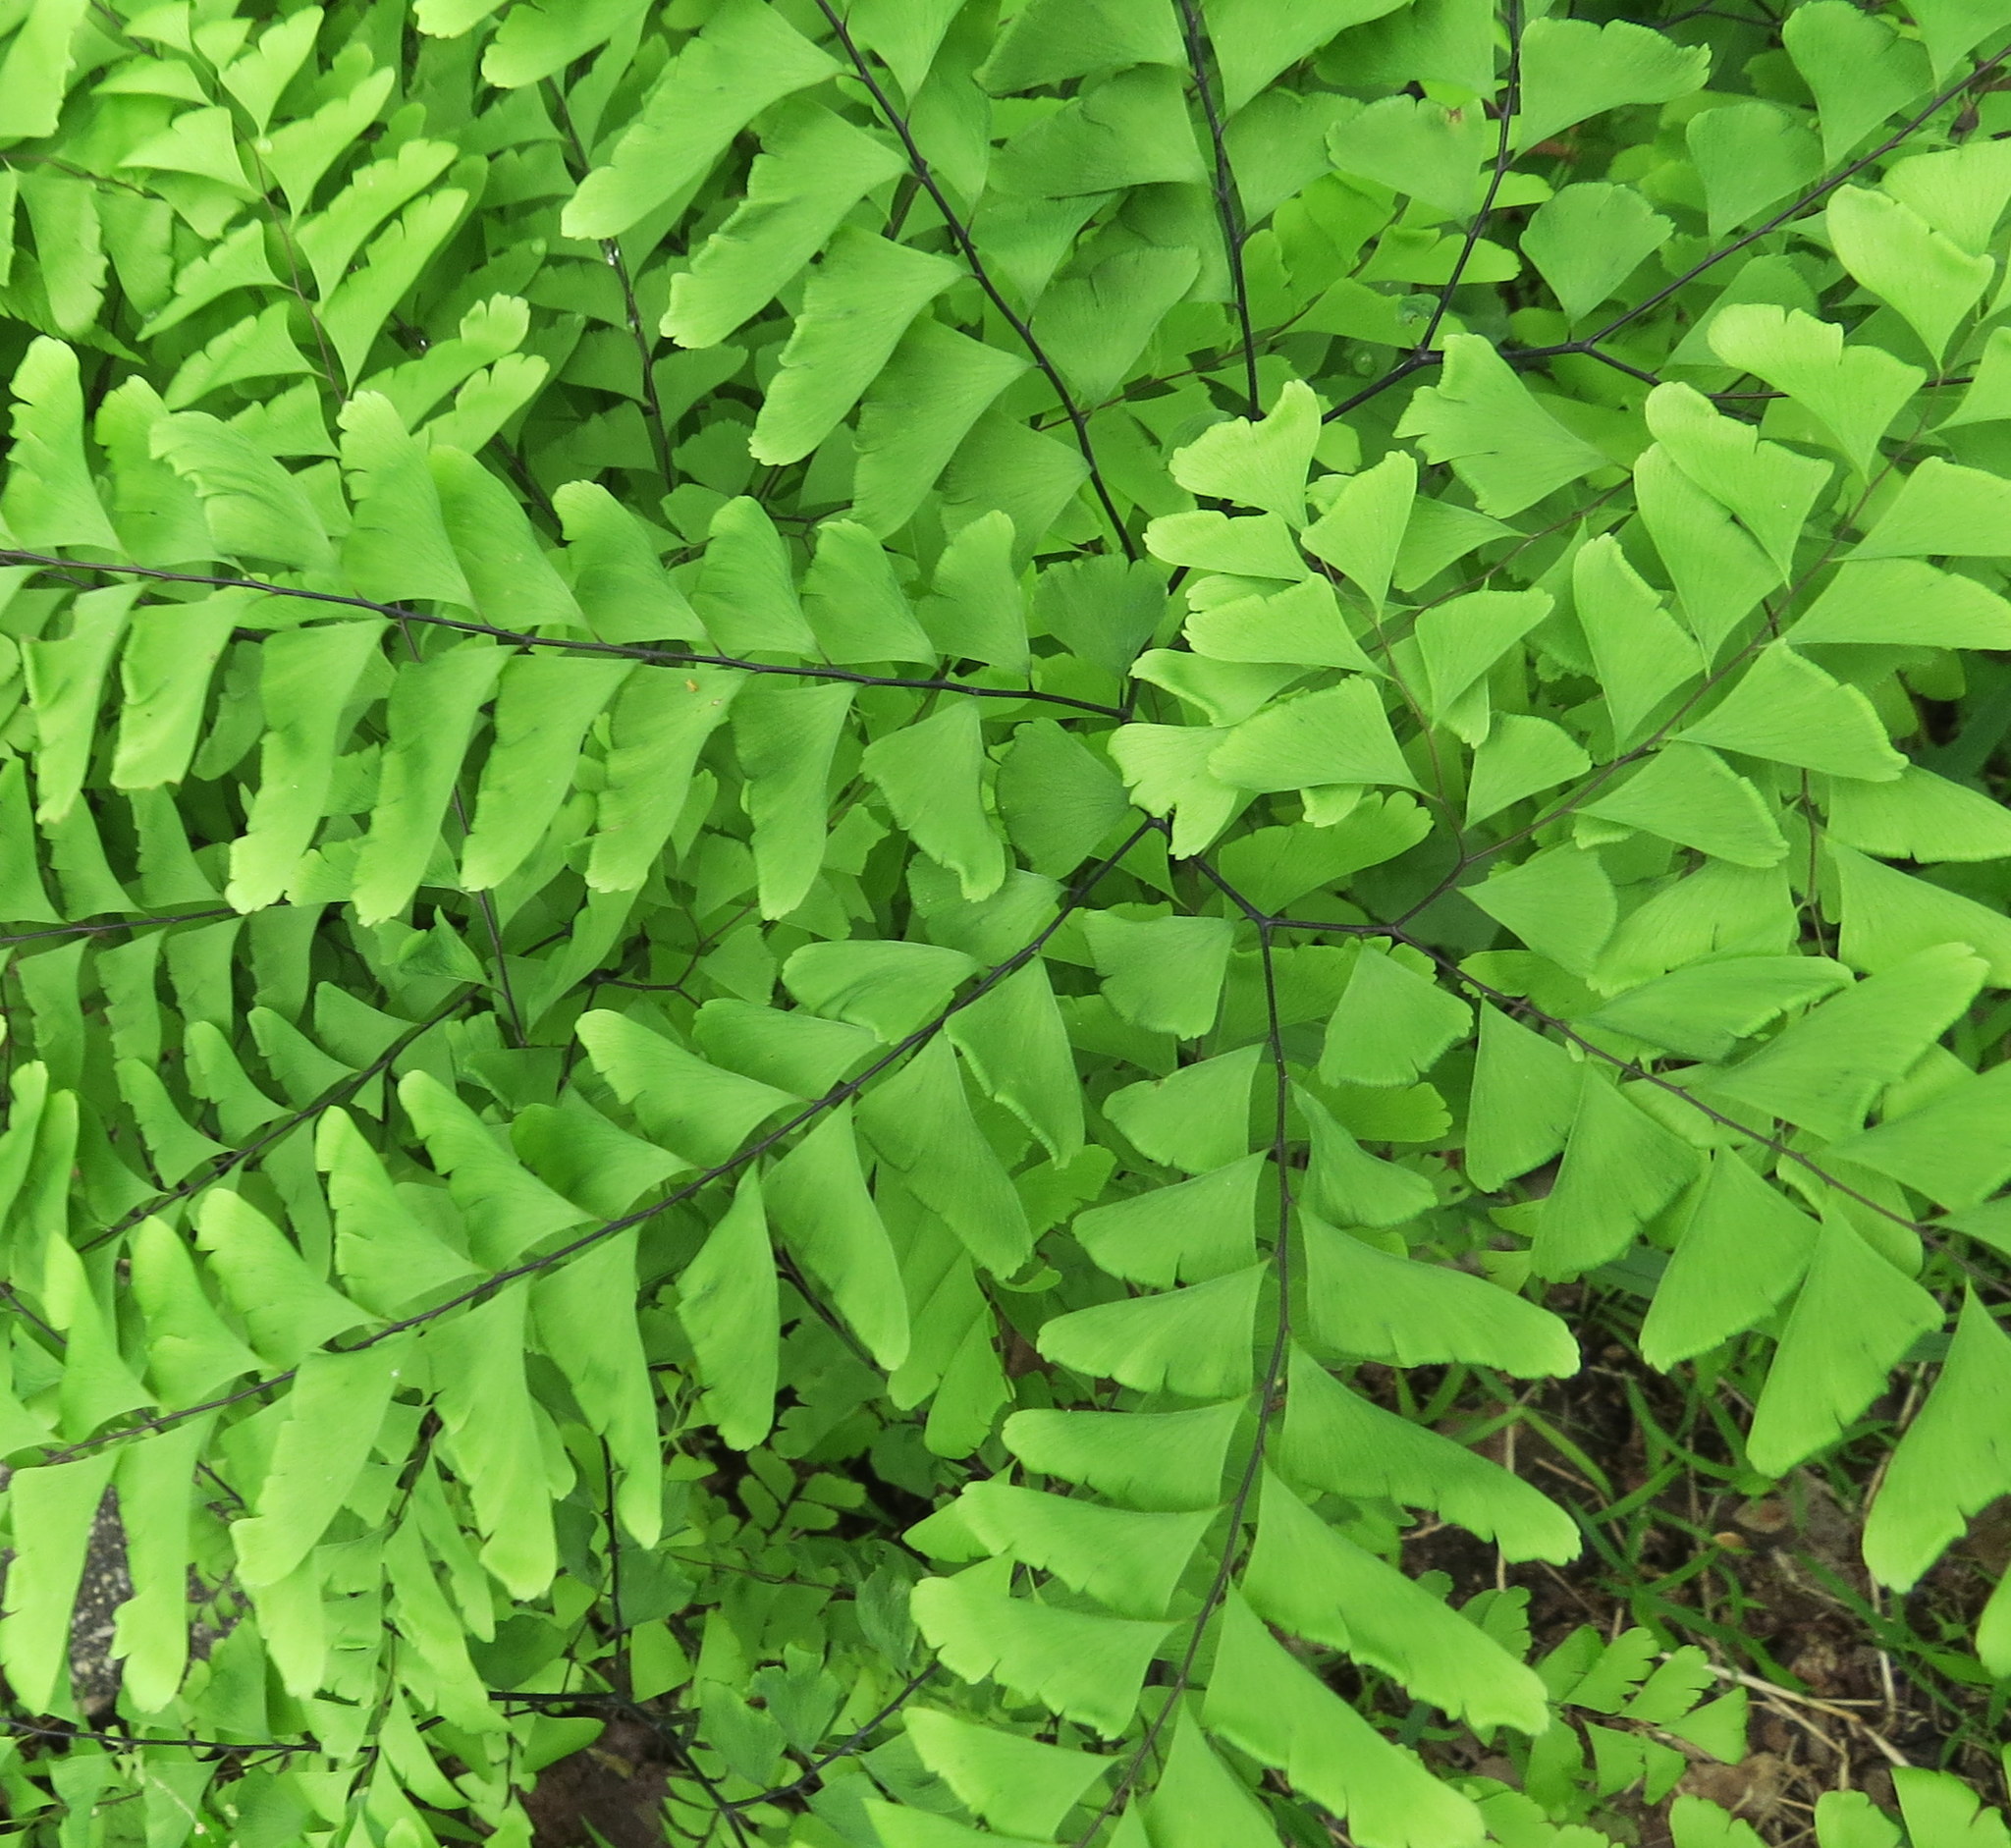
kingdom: Plantae
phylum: Tracheophyta
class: Polypodiopsida
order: Polypodiales
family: Pteridaceae
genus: Adiantum
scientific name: Adiantum pedatum
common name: Five-finger fern
